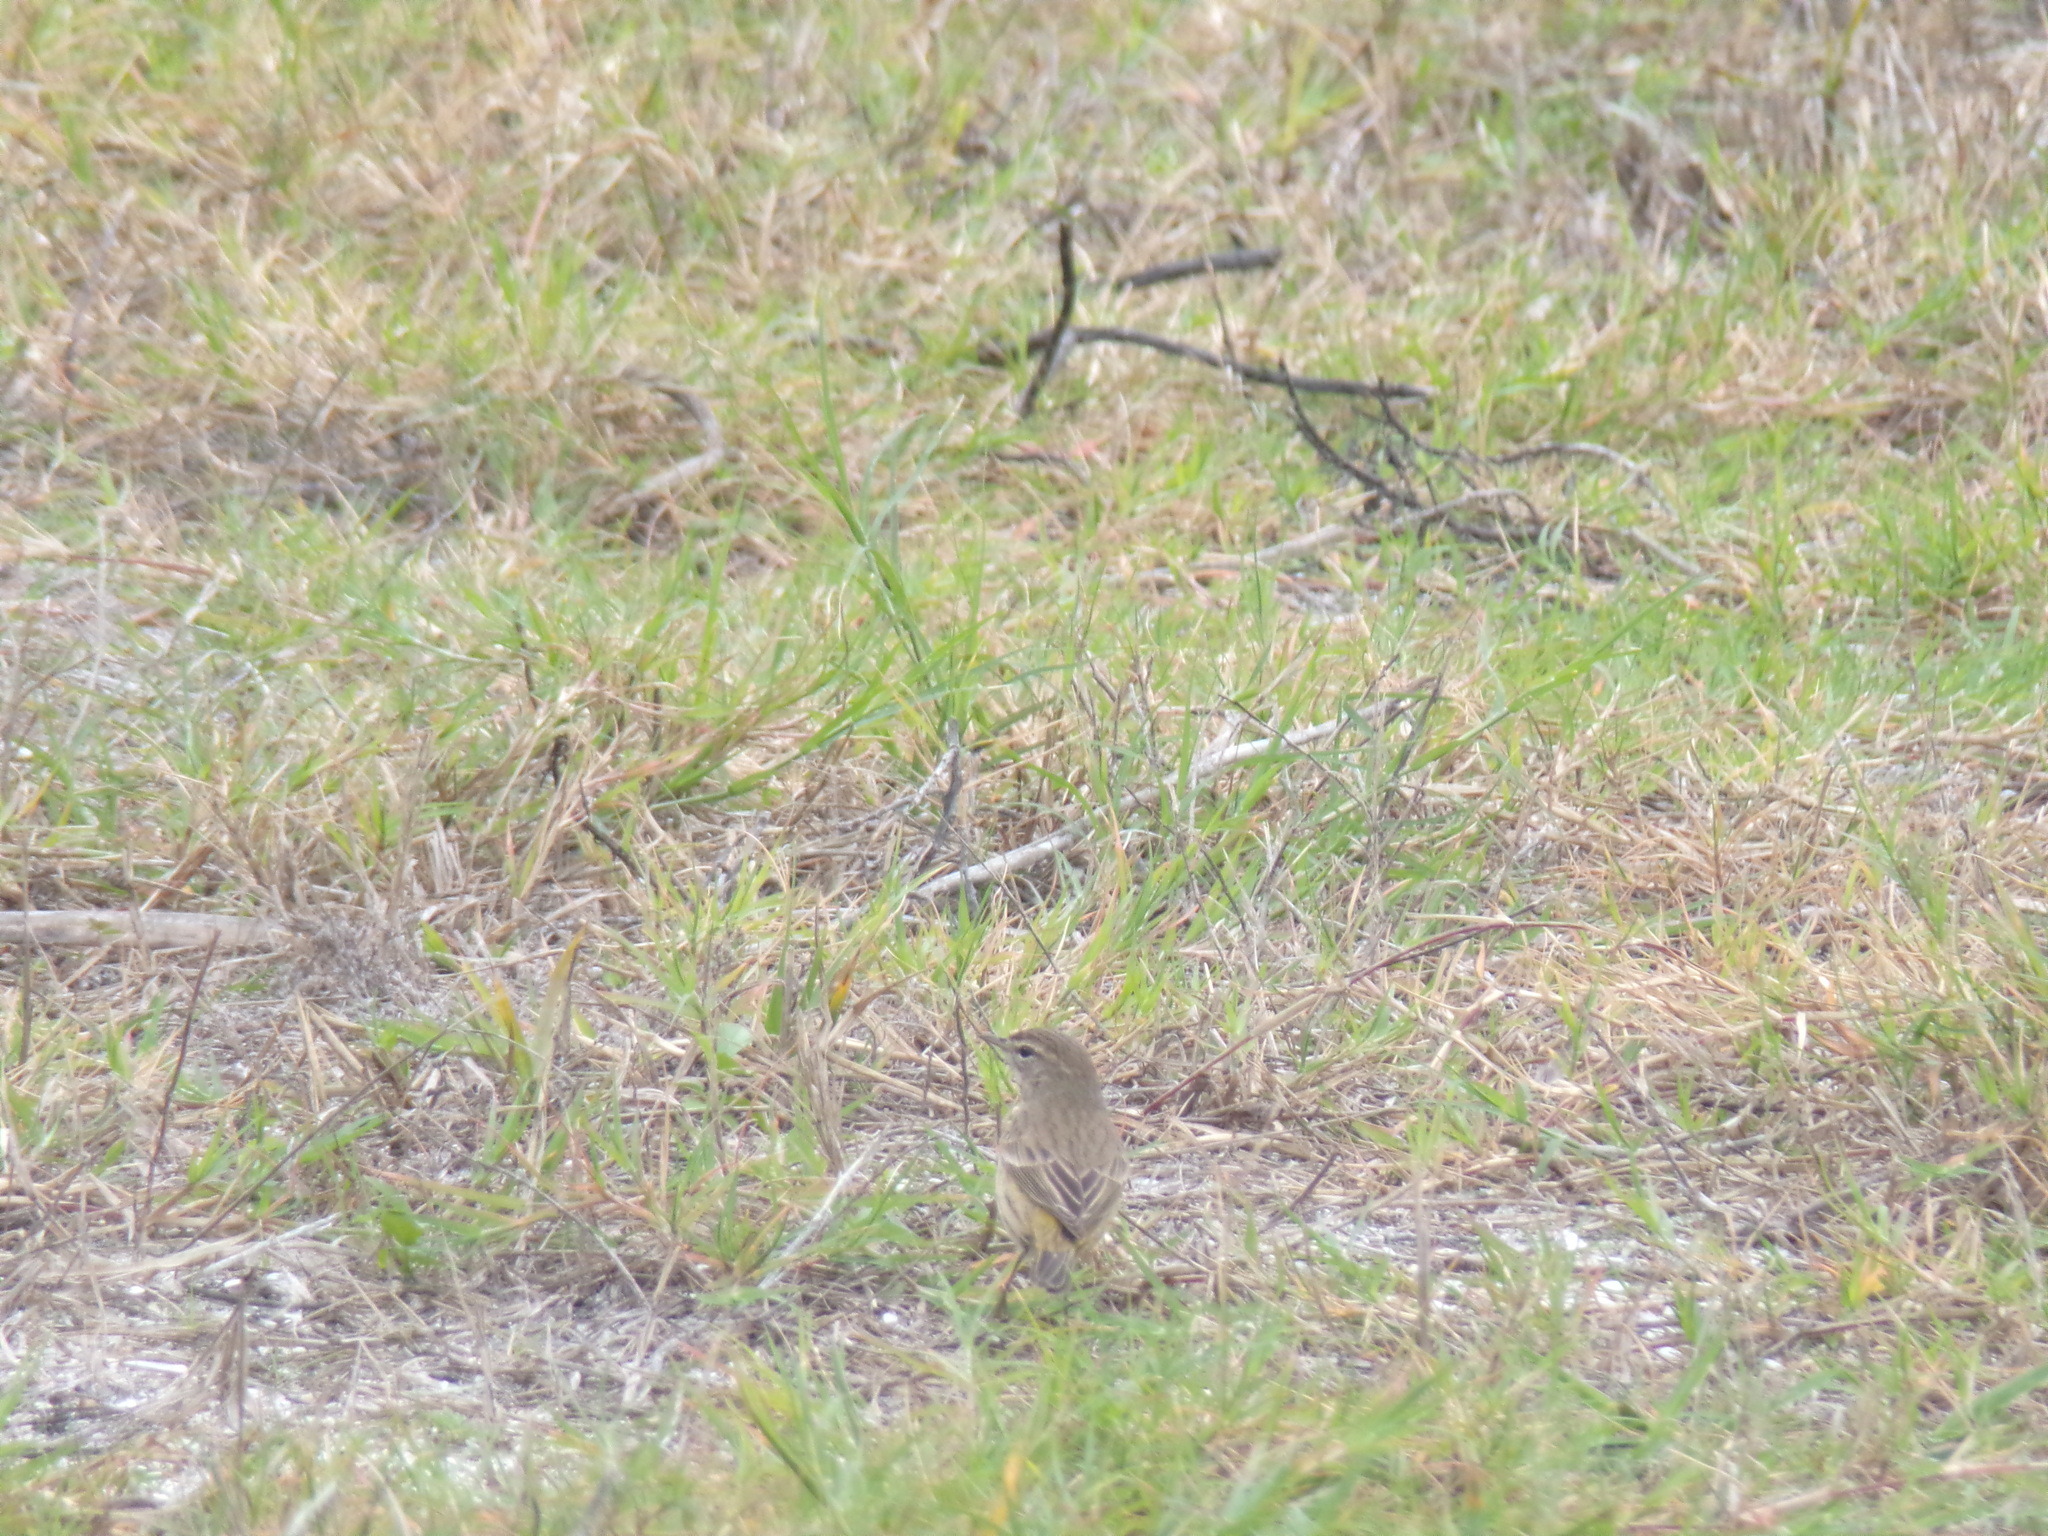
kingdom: Animalia
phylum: Chordata
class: Aves
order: Passeriformes
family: Parulidae
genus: Setophaga
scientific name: Setophaga palmarum
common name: Palm warbler
